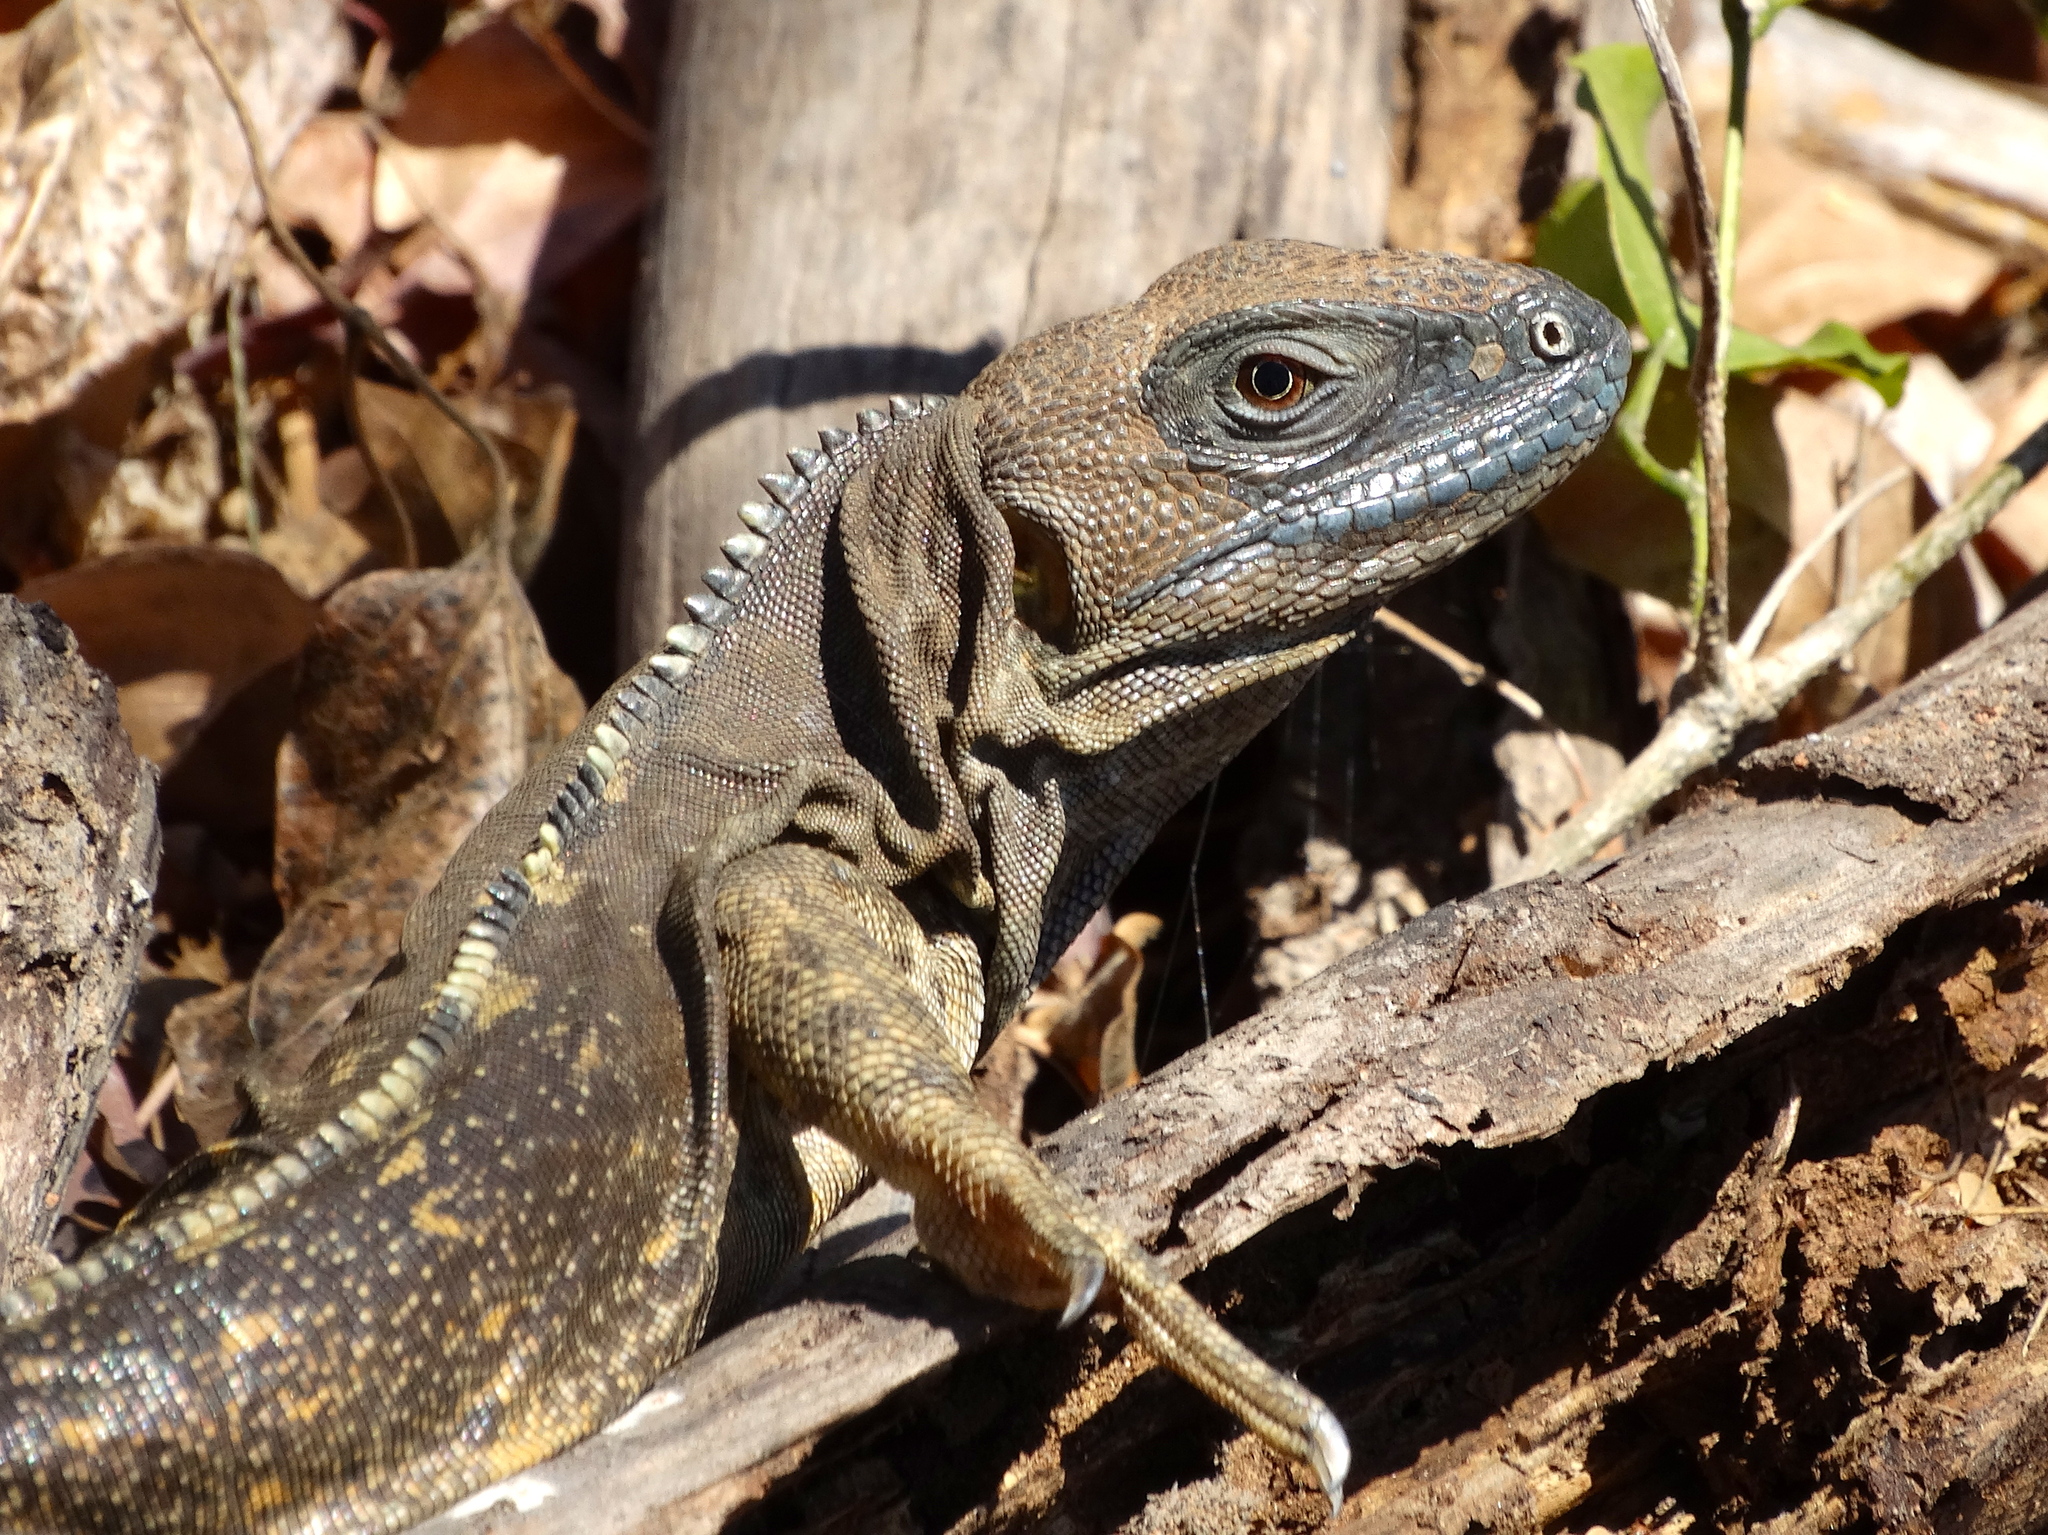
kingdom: Animalia
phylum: Chordata
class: Squamata
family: Iguanidae
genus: Ctenosaura
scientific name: Ctenosaura pectinata
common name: Guerreran spiny-tailed iguana
